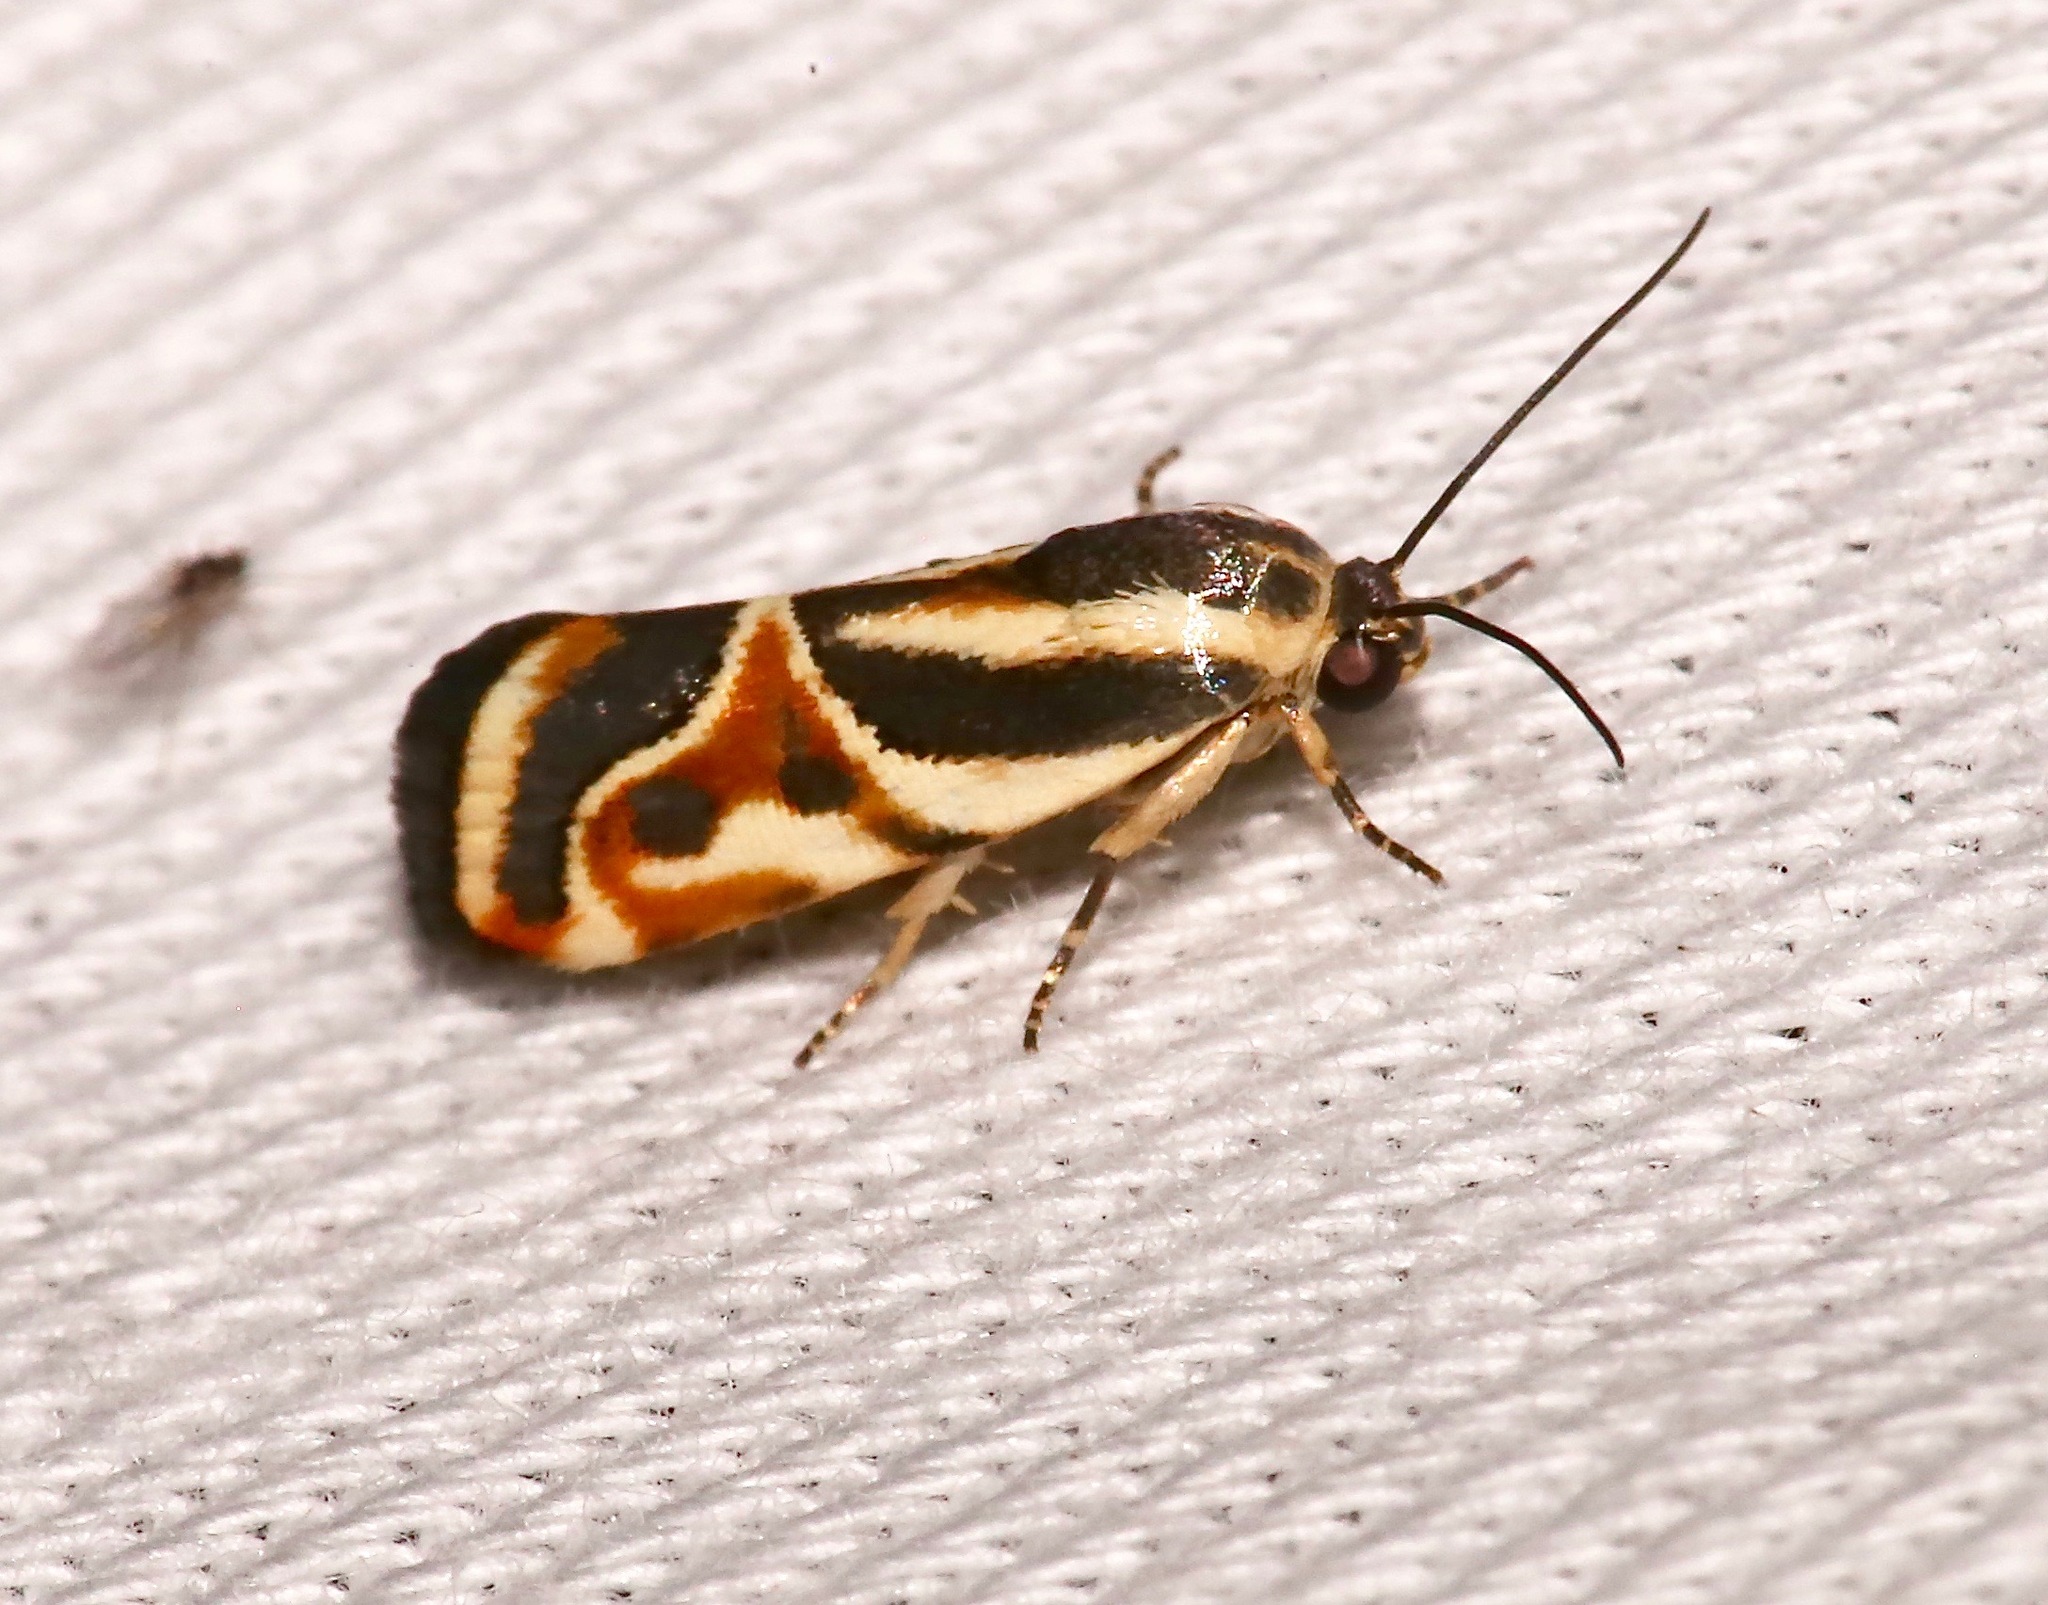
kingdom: Animalia
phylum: Arthropoda
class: Insecta
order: Lepidoptera
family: Noctuidae
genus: Spragueia
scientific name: Spragueia magnifica
